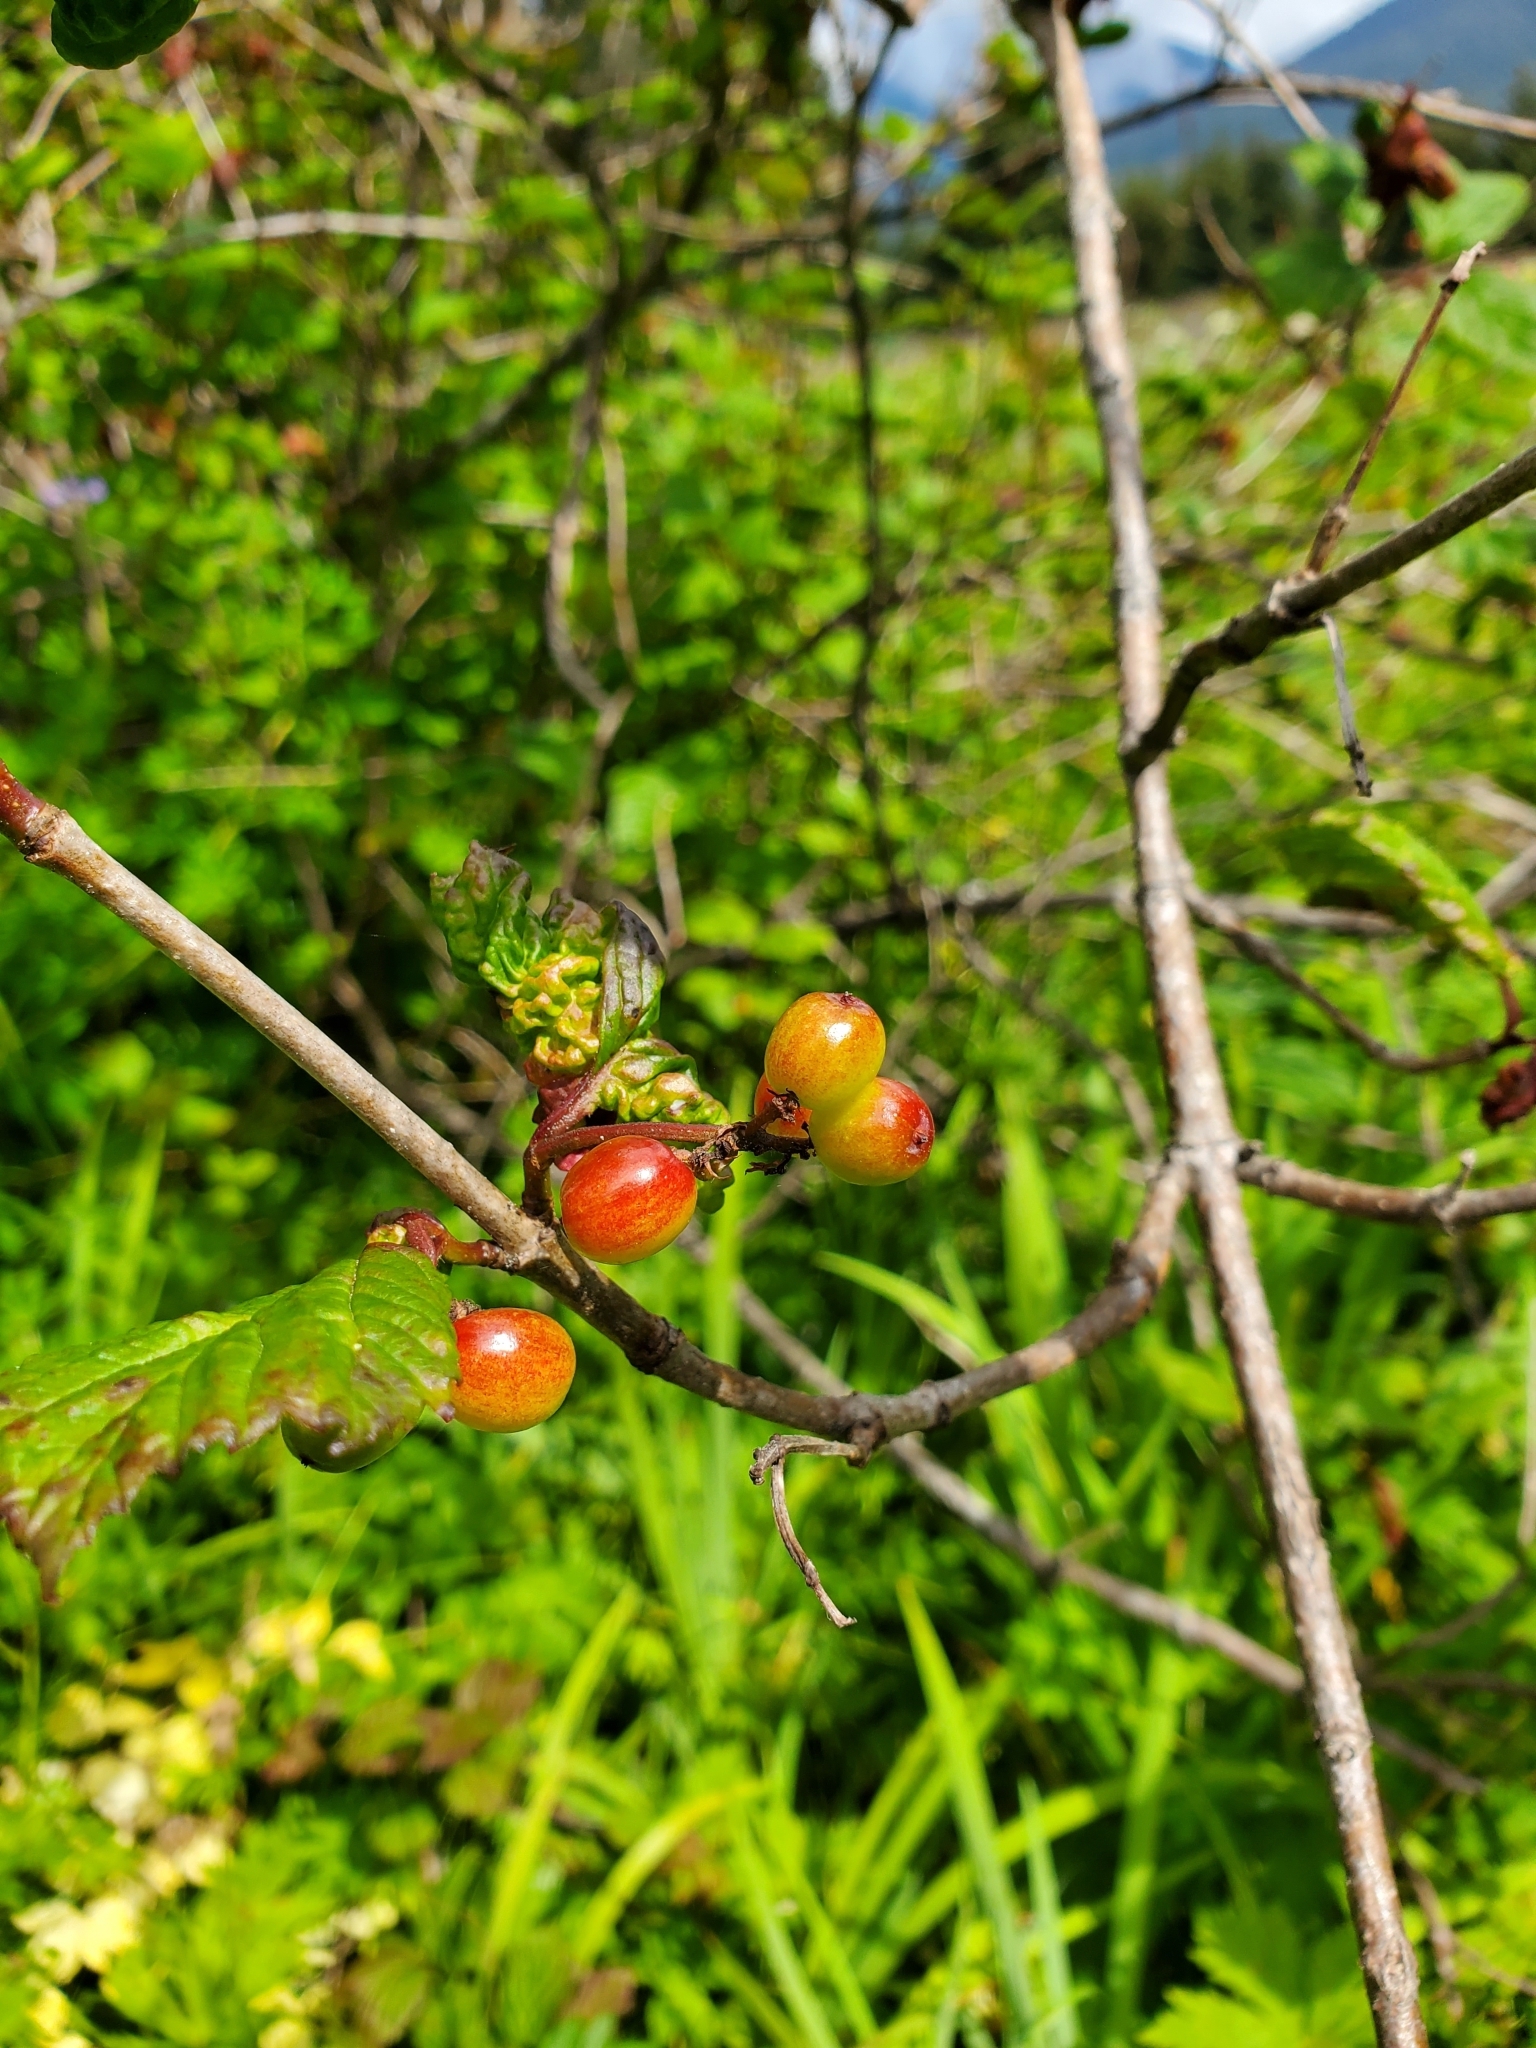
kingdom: Plantae
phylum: Tracheophyta
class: Magnoliopsida
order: Dipsacales
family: Viburnaceae
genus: Viburnum
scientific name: Viburnum edule
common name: Mooseberry
